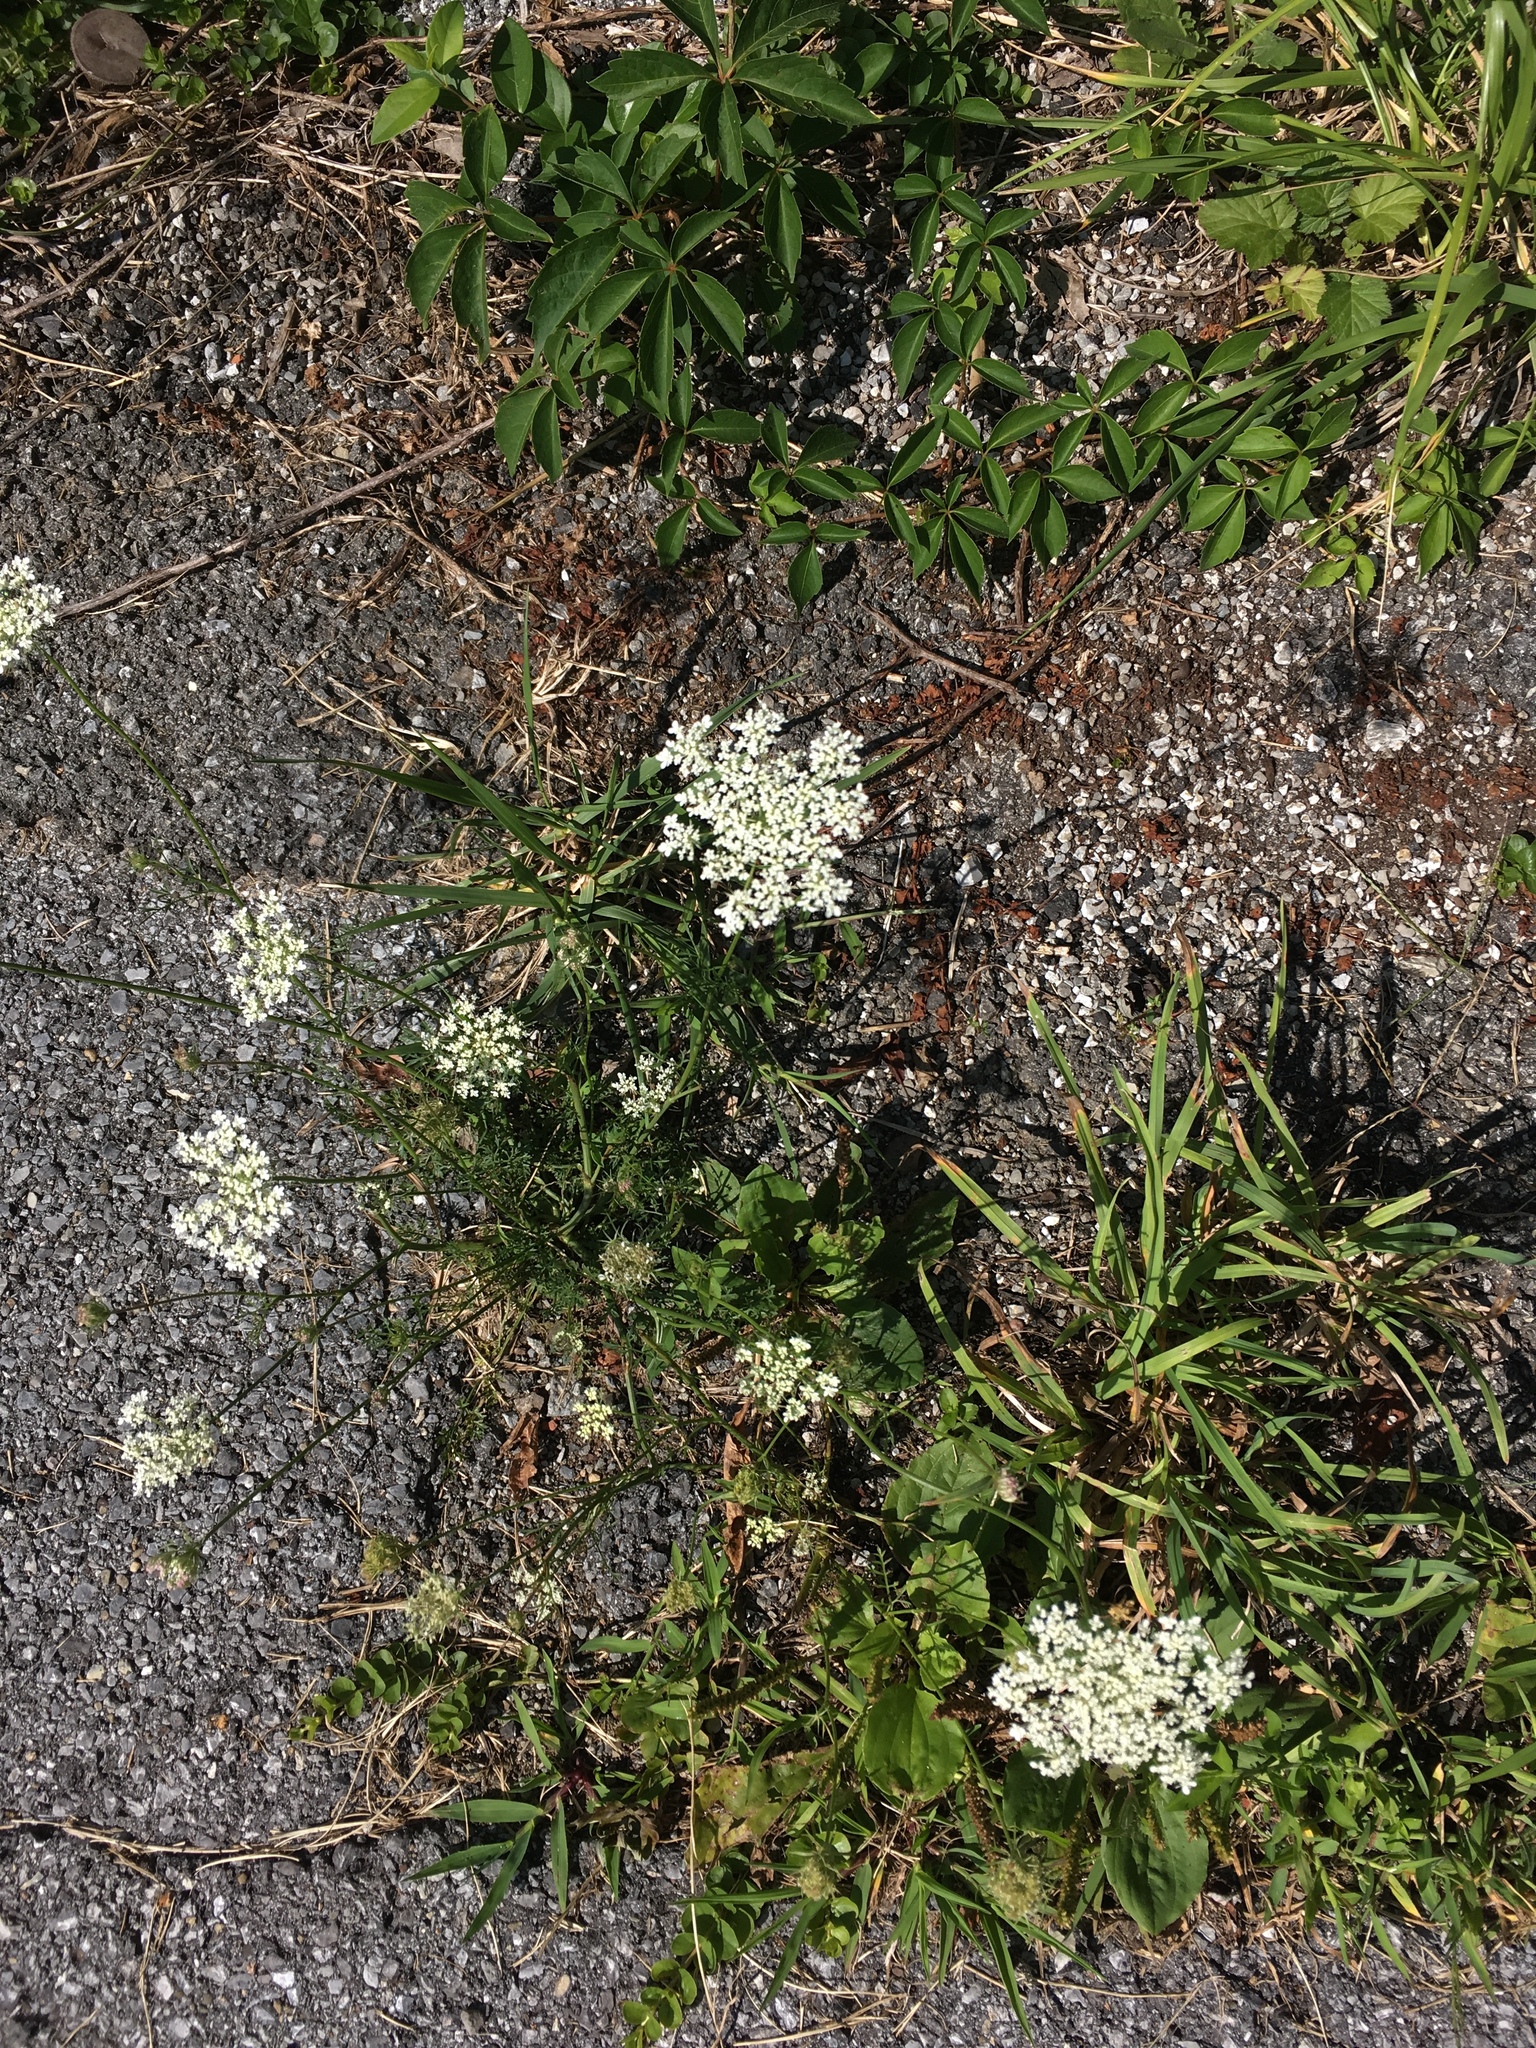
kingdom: Plantae
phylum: Tracheophyta
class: Magnoliopsida
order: Apiales
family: Apiaceae
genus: Daucus
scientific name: Daucus carota
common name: Wild carrot
